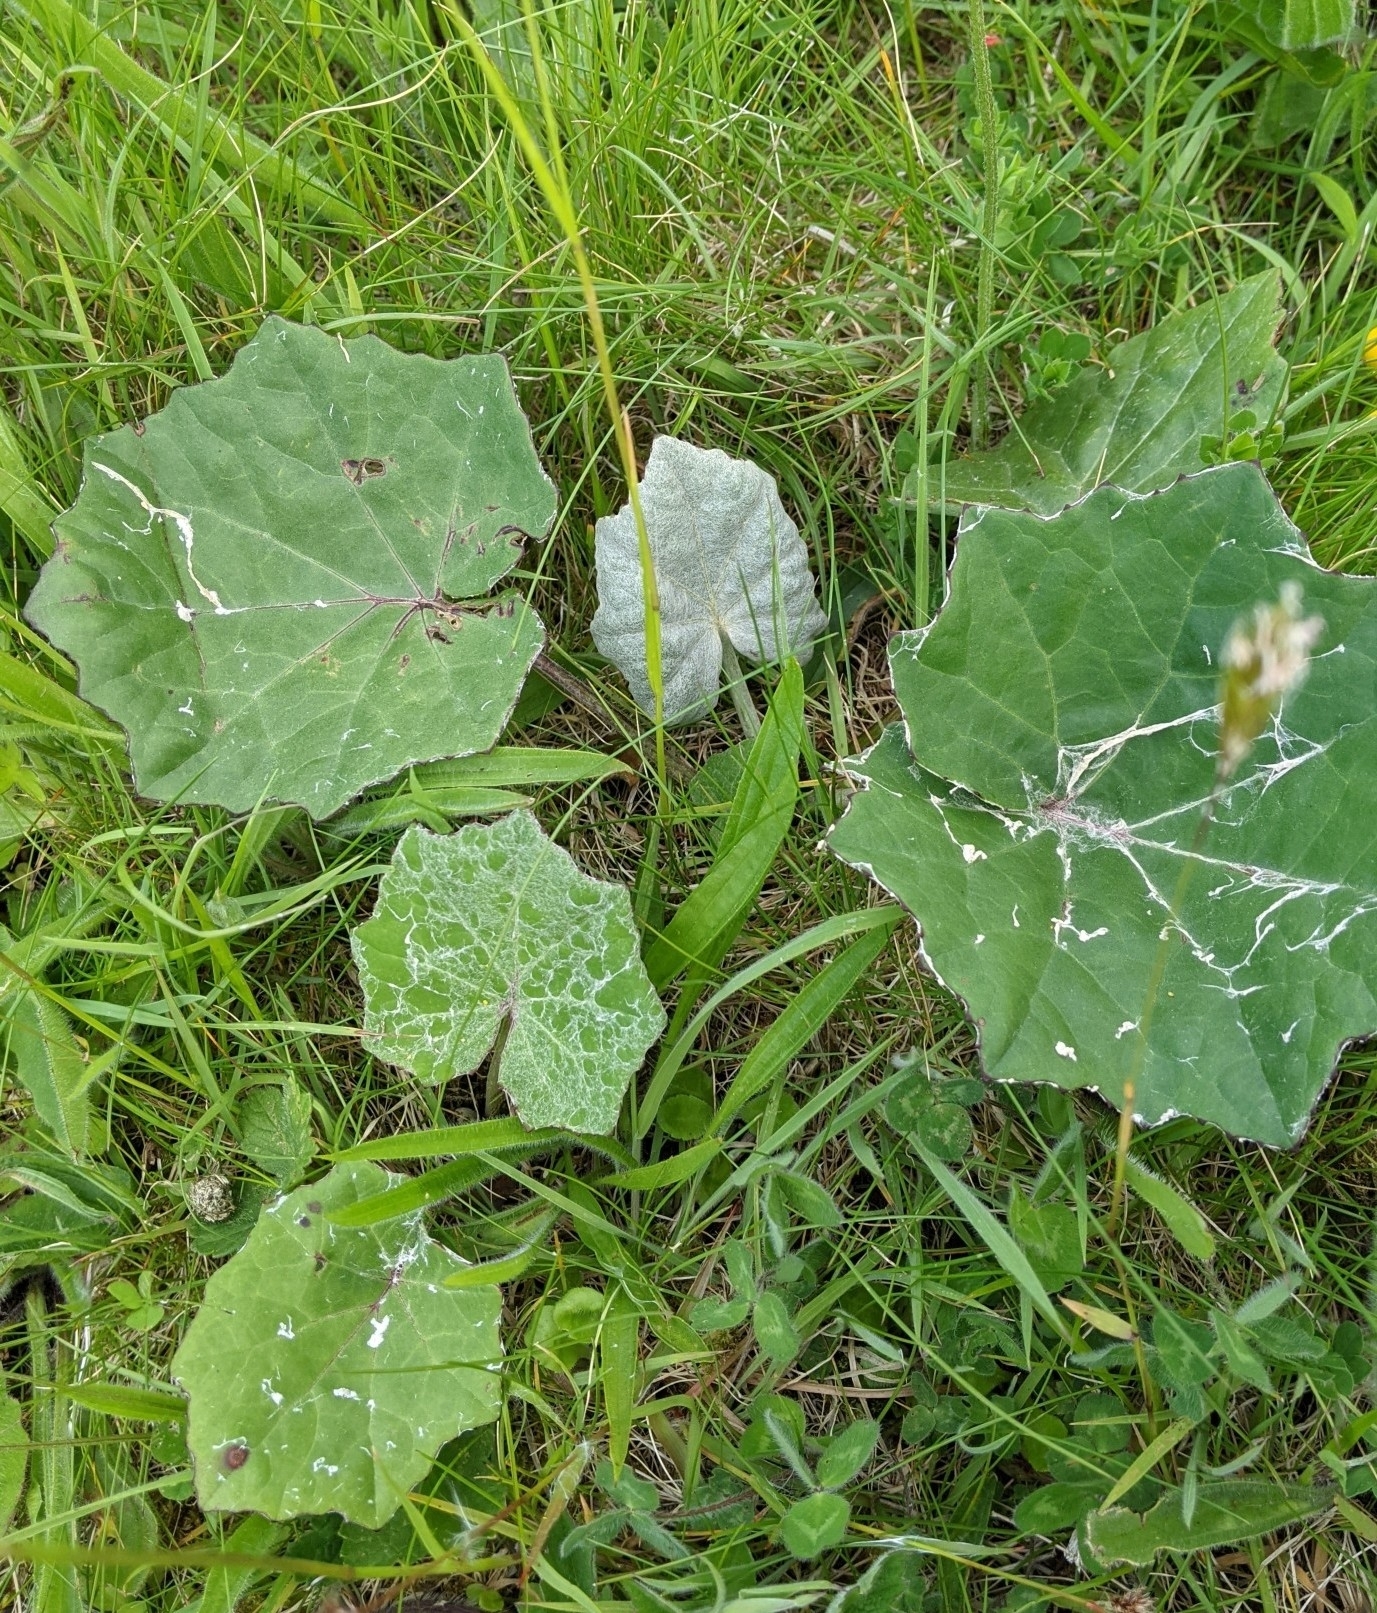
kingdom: Plantae
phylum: Tracheophyta
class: Magnoliopsida
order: Asterales
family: Asteraceae
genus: Tussilago
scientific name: Tussilago farfara
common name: Coltsfoot
